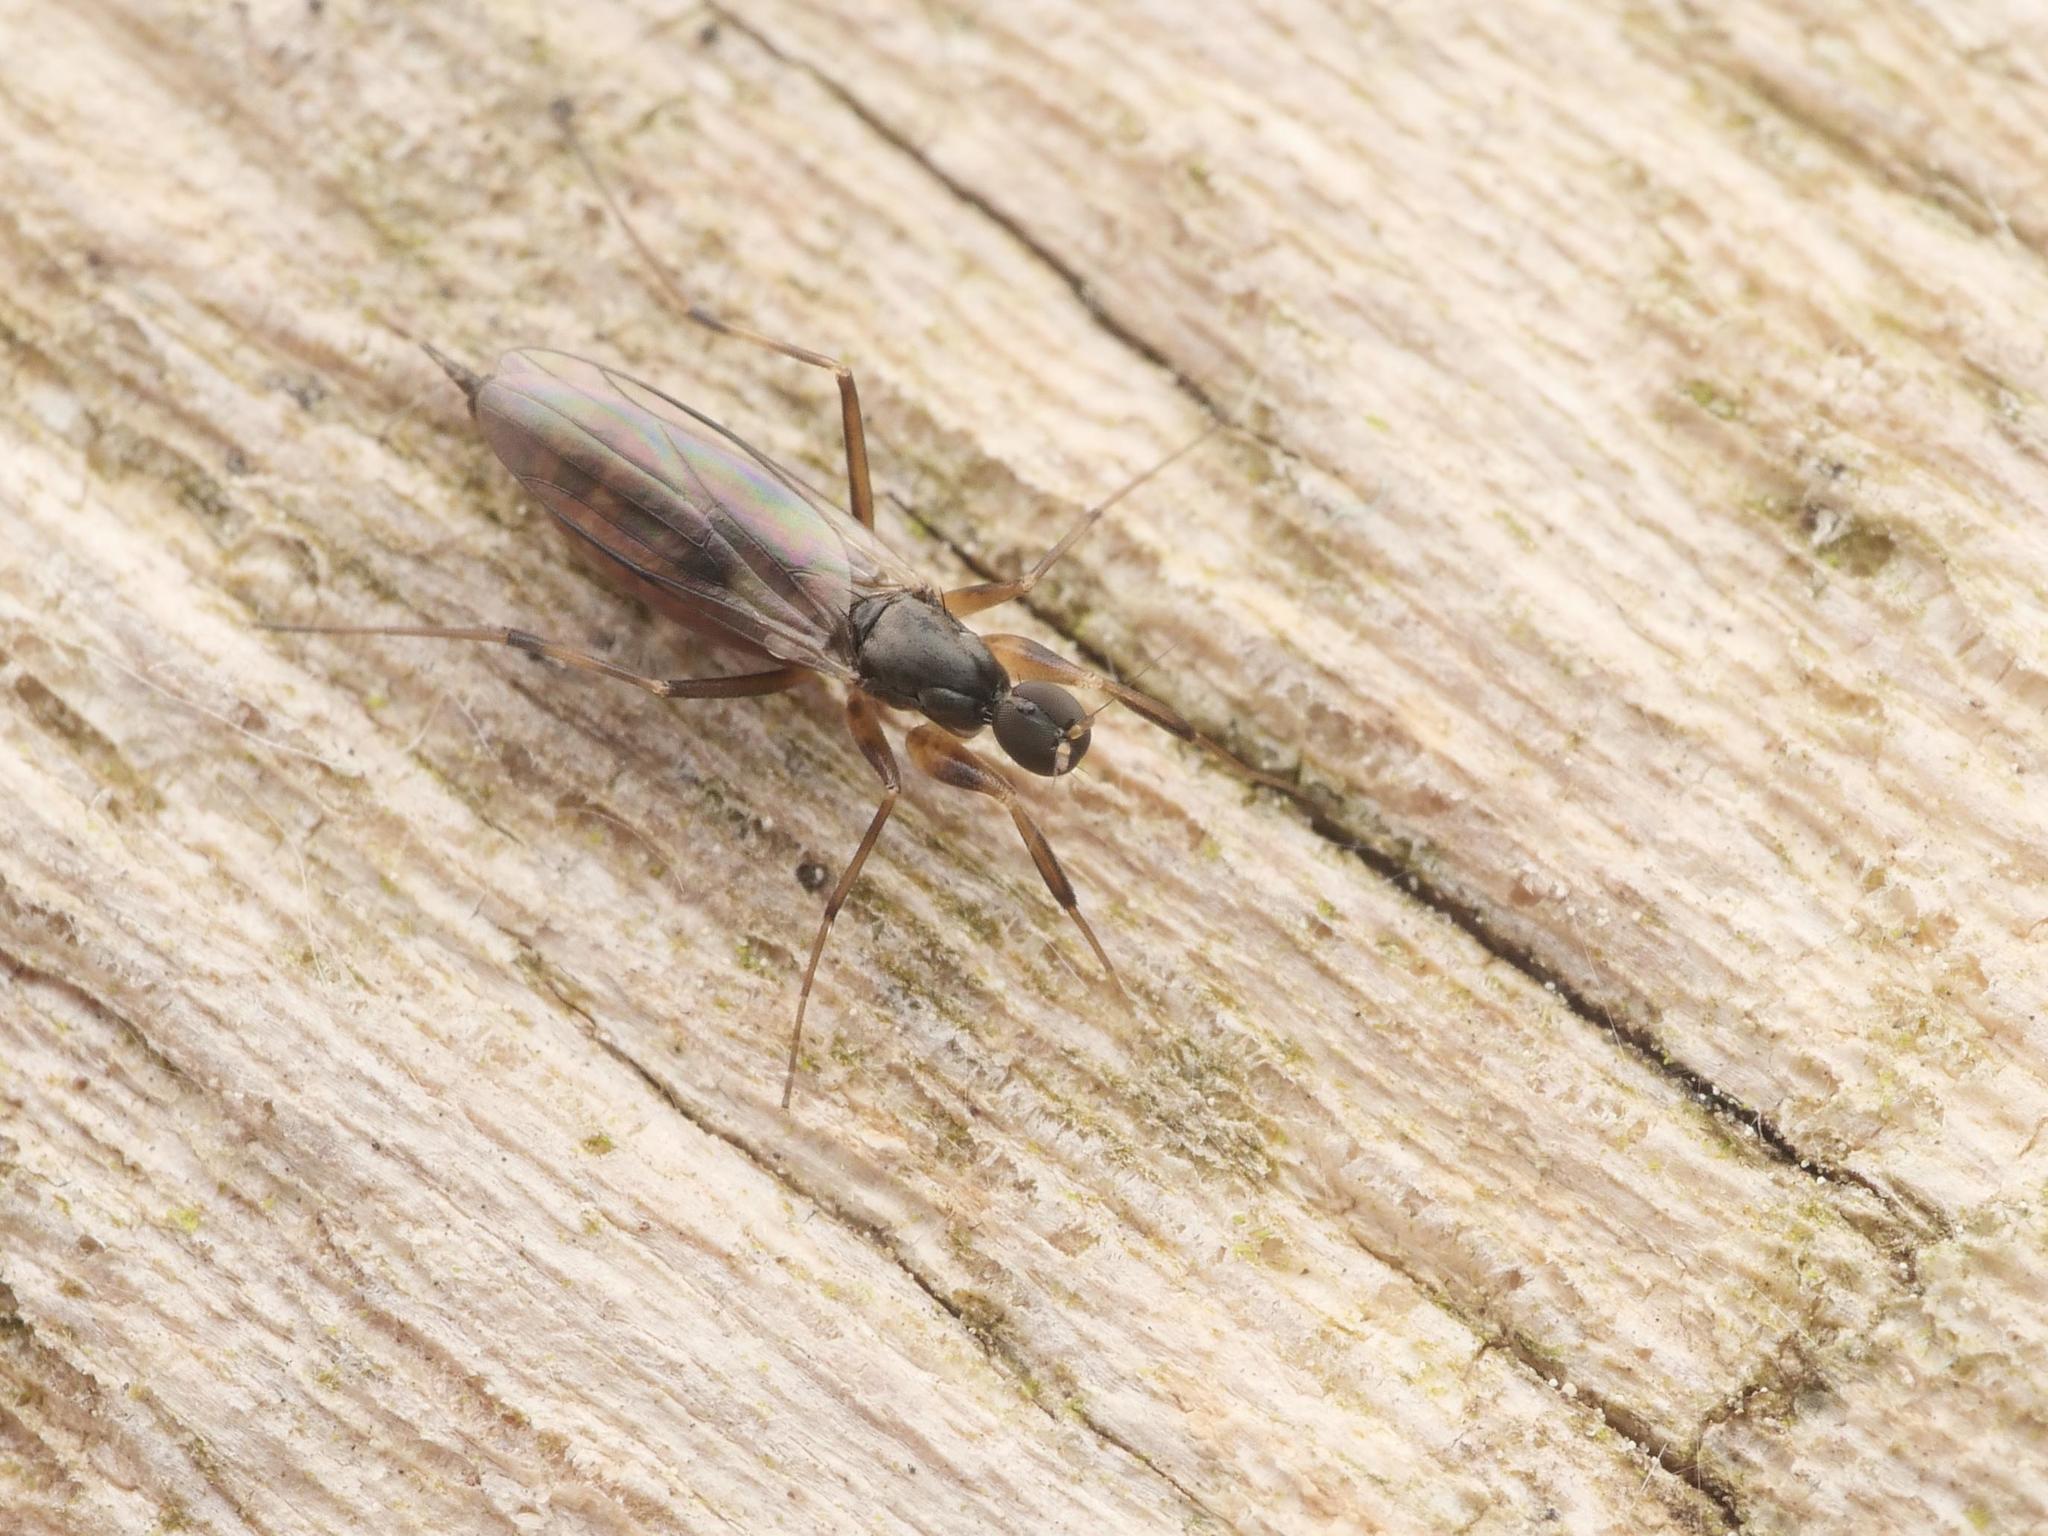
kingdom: Animalia
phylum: Arthropoda
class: Insecta
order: Diptera
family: Hybotidae
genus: Tachypeza
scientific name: Tachypeza nubila
